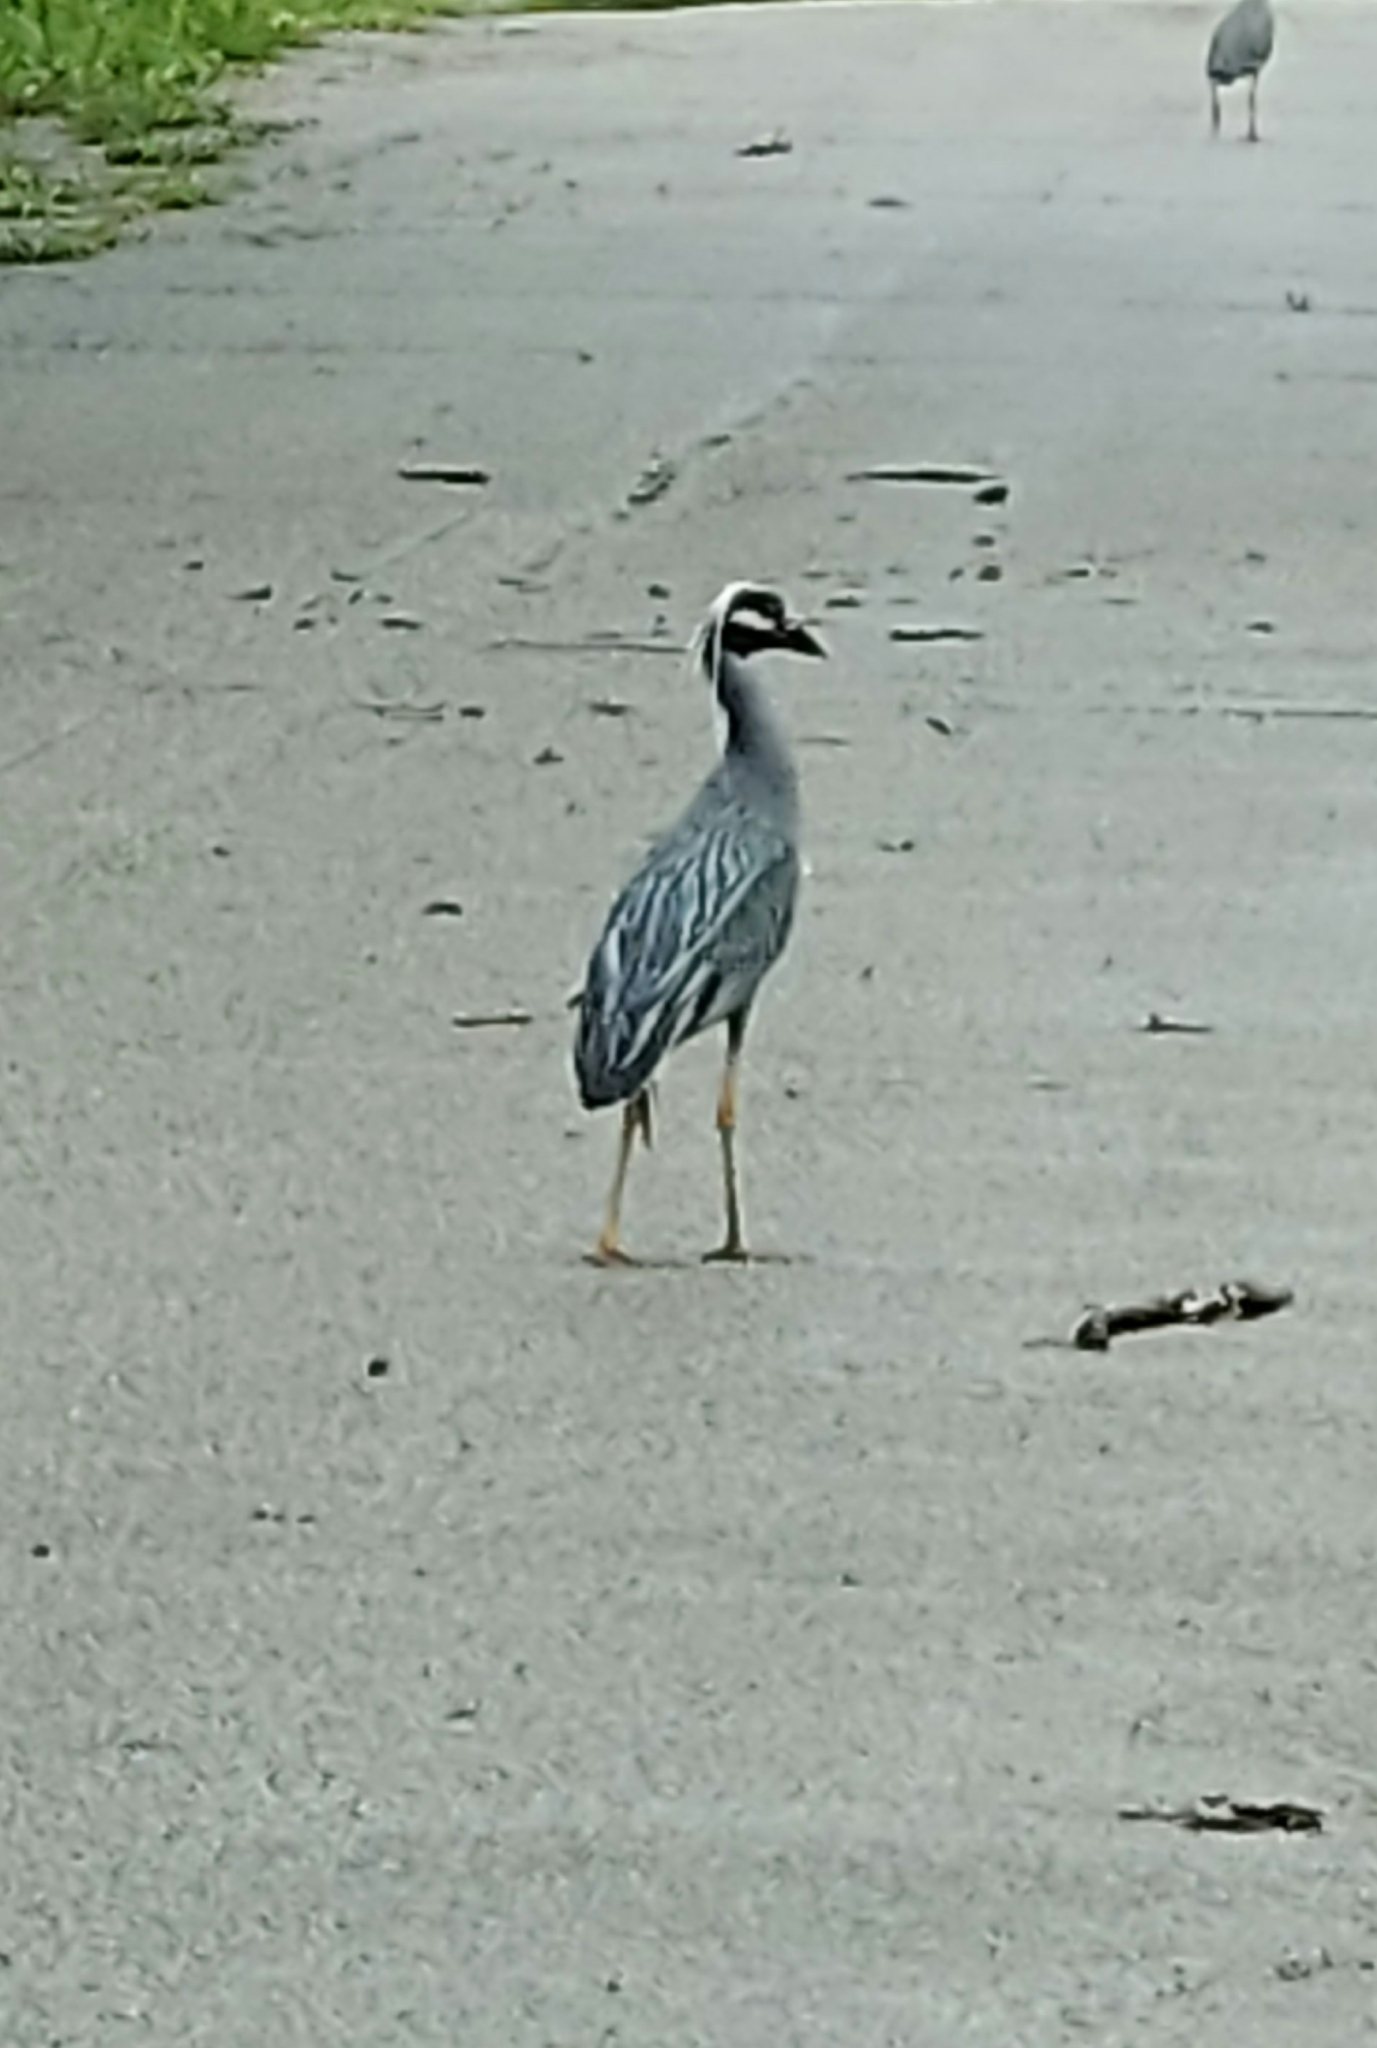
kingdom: Animalia
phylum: Chordata
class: Aves
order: Pelecaniformes
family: Ardeidae
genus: Nyctanassa
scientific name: Nyctanassa violacea
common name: Yellow-crowned night heron
